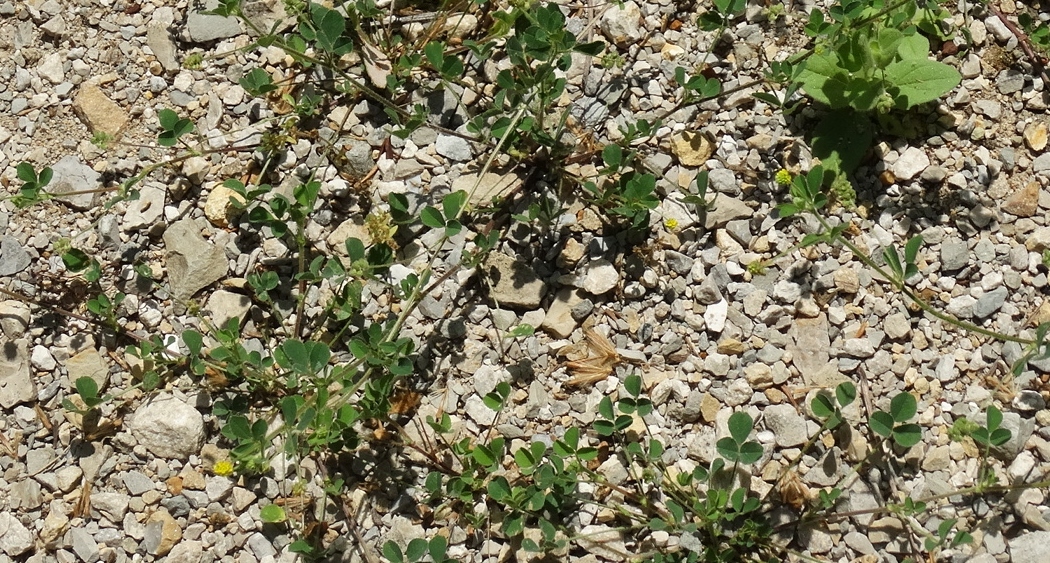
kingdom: Plantae
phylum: Tracheophyta
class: Magnoliopsida
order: Fabales
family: Fabaceae
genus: Medicago
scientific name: Medicago lupulina
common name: Black medick
